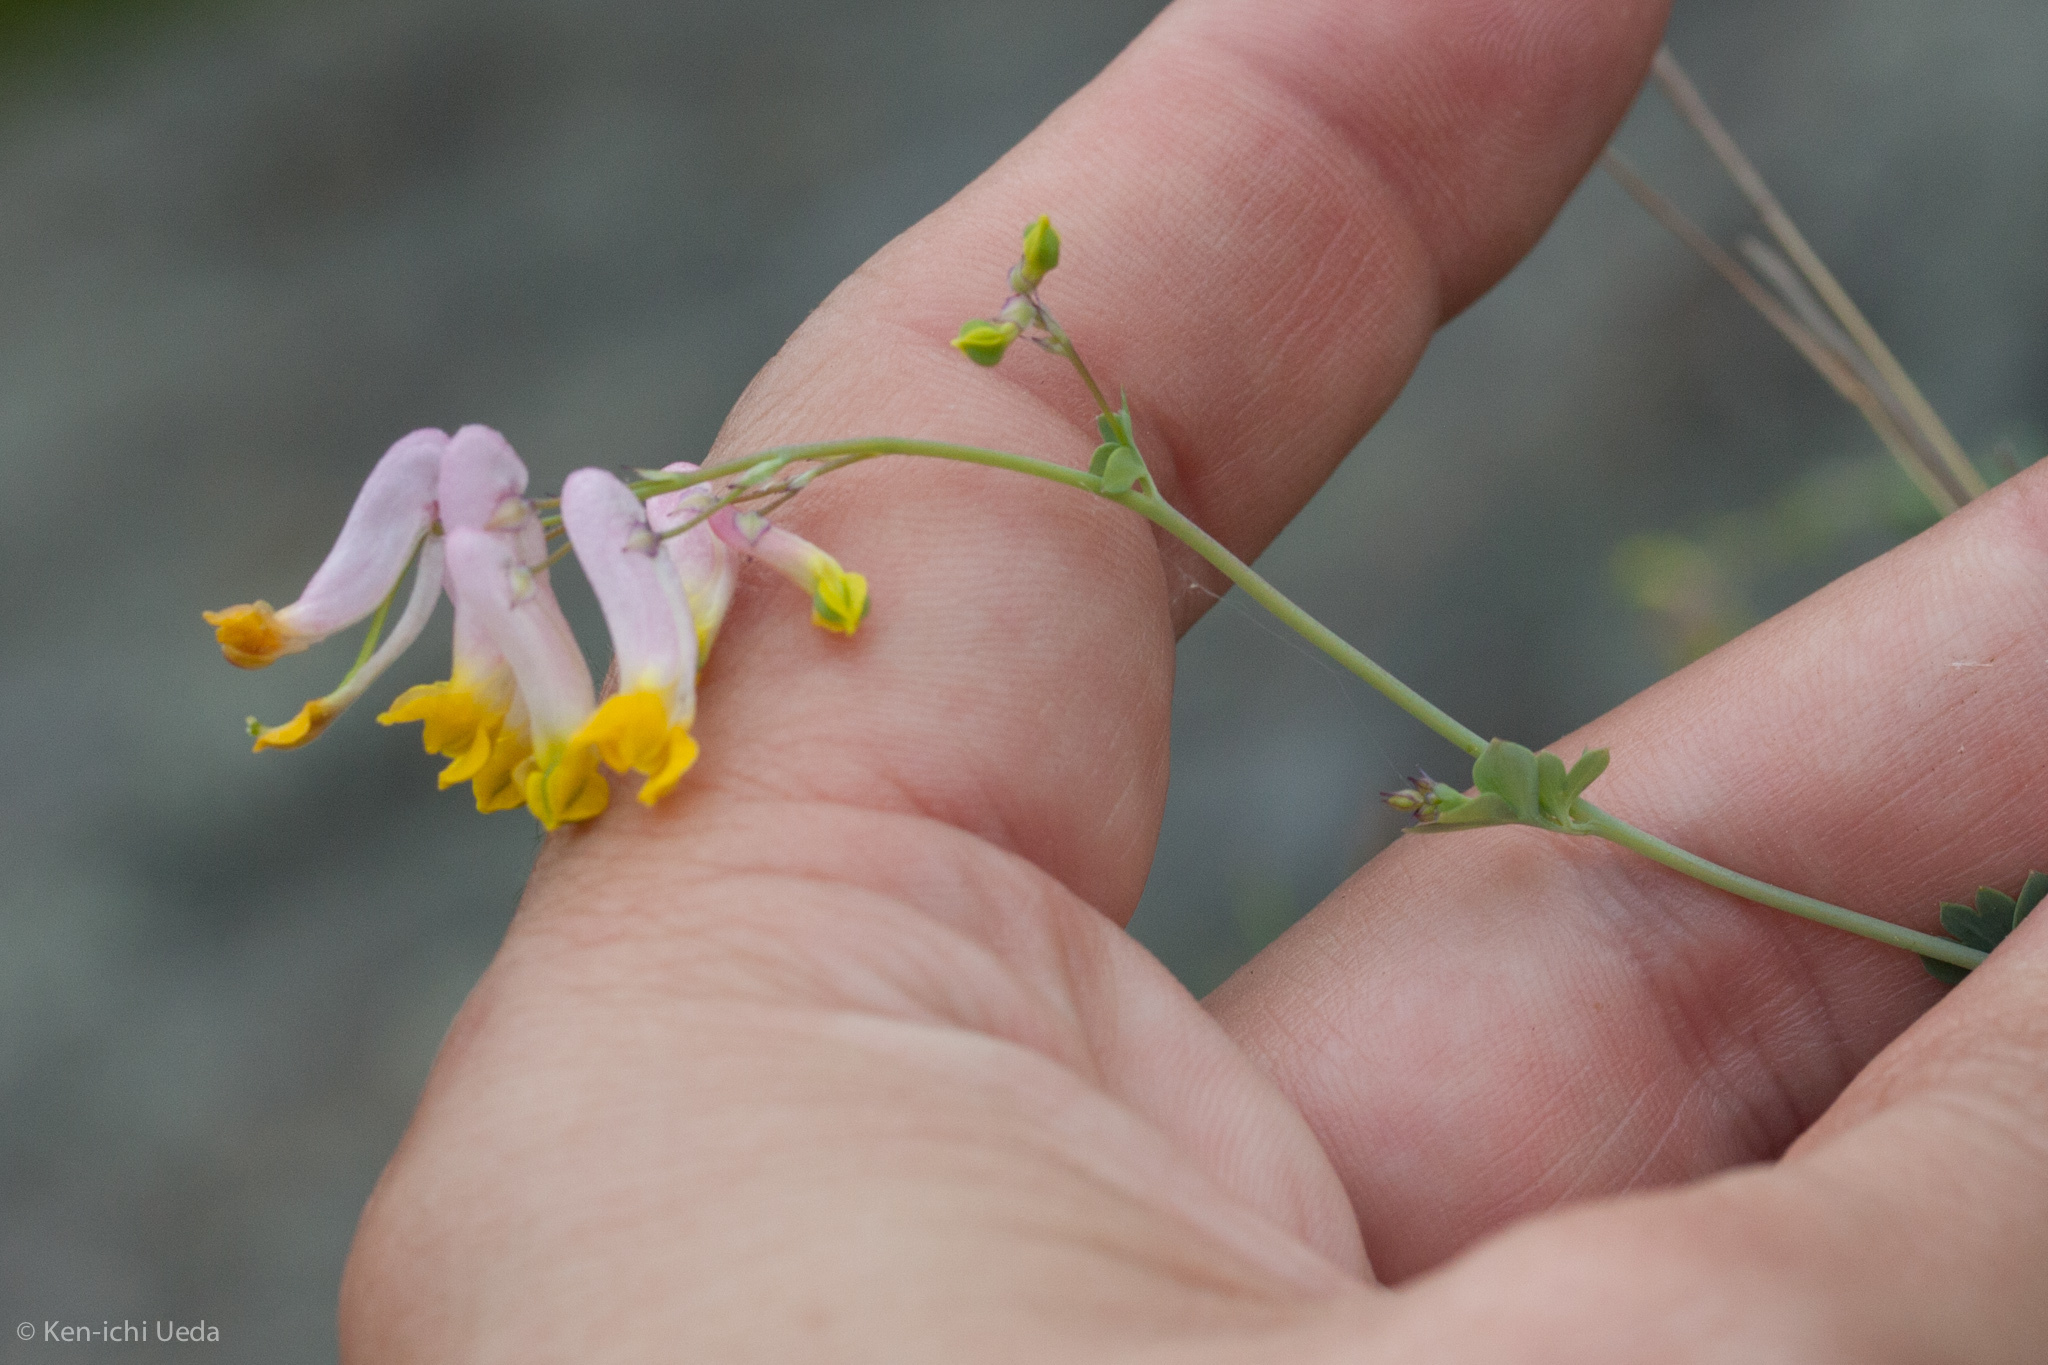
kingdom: Plantae
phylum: Tracheophyta
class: Magnoliopsida
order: Ranunculales
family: Papaveraceae
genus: Capnoides
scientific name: Capnoides sempervirens
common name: Rock harlequin
